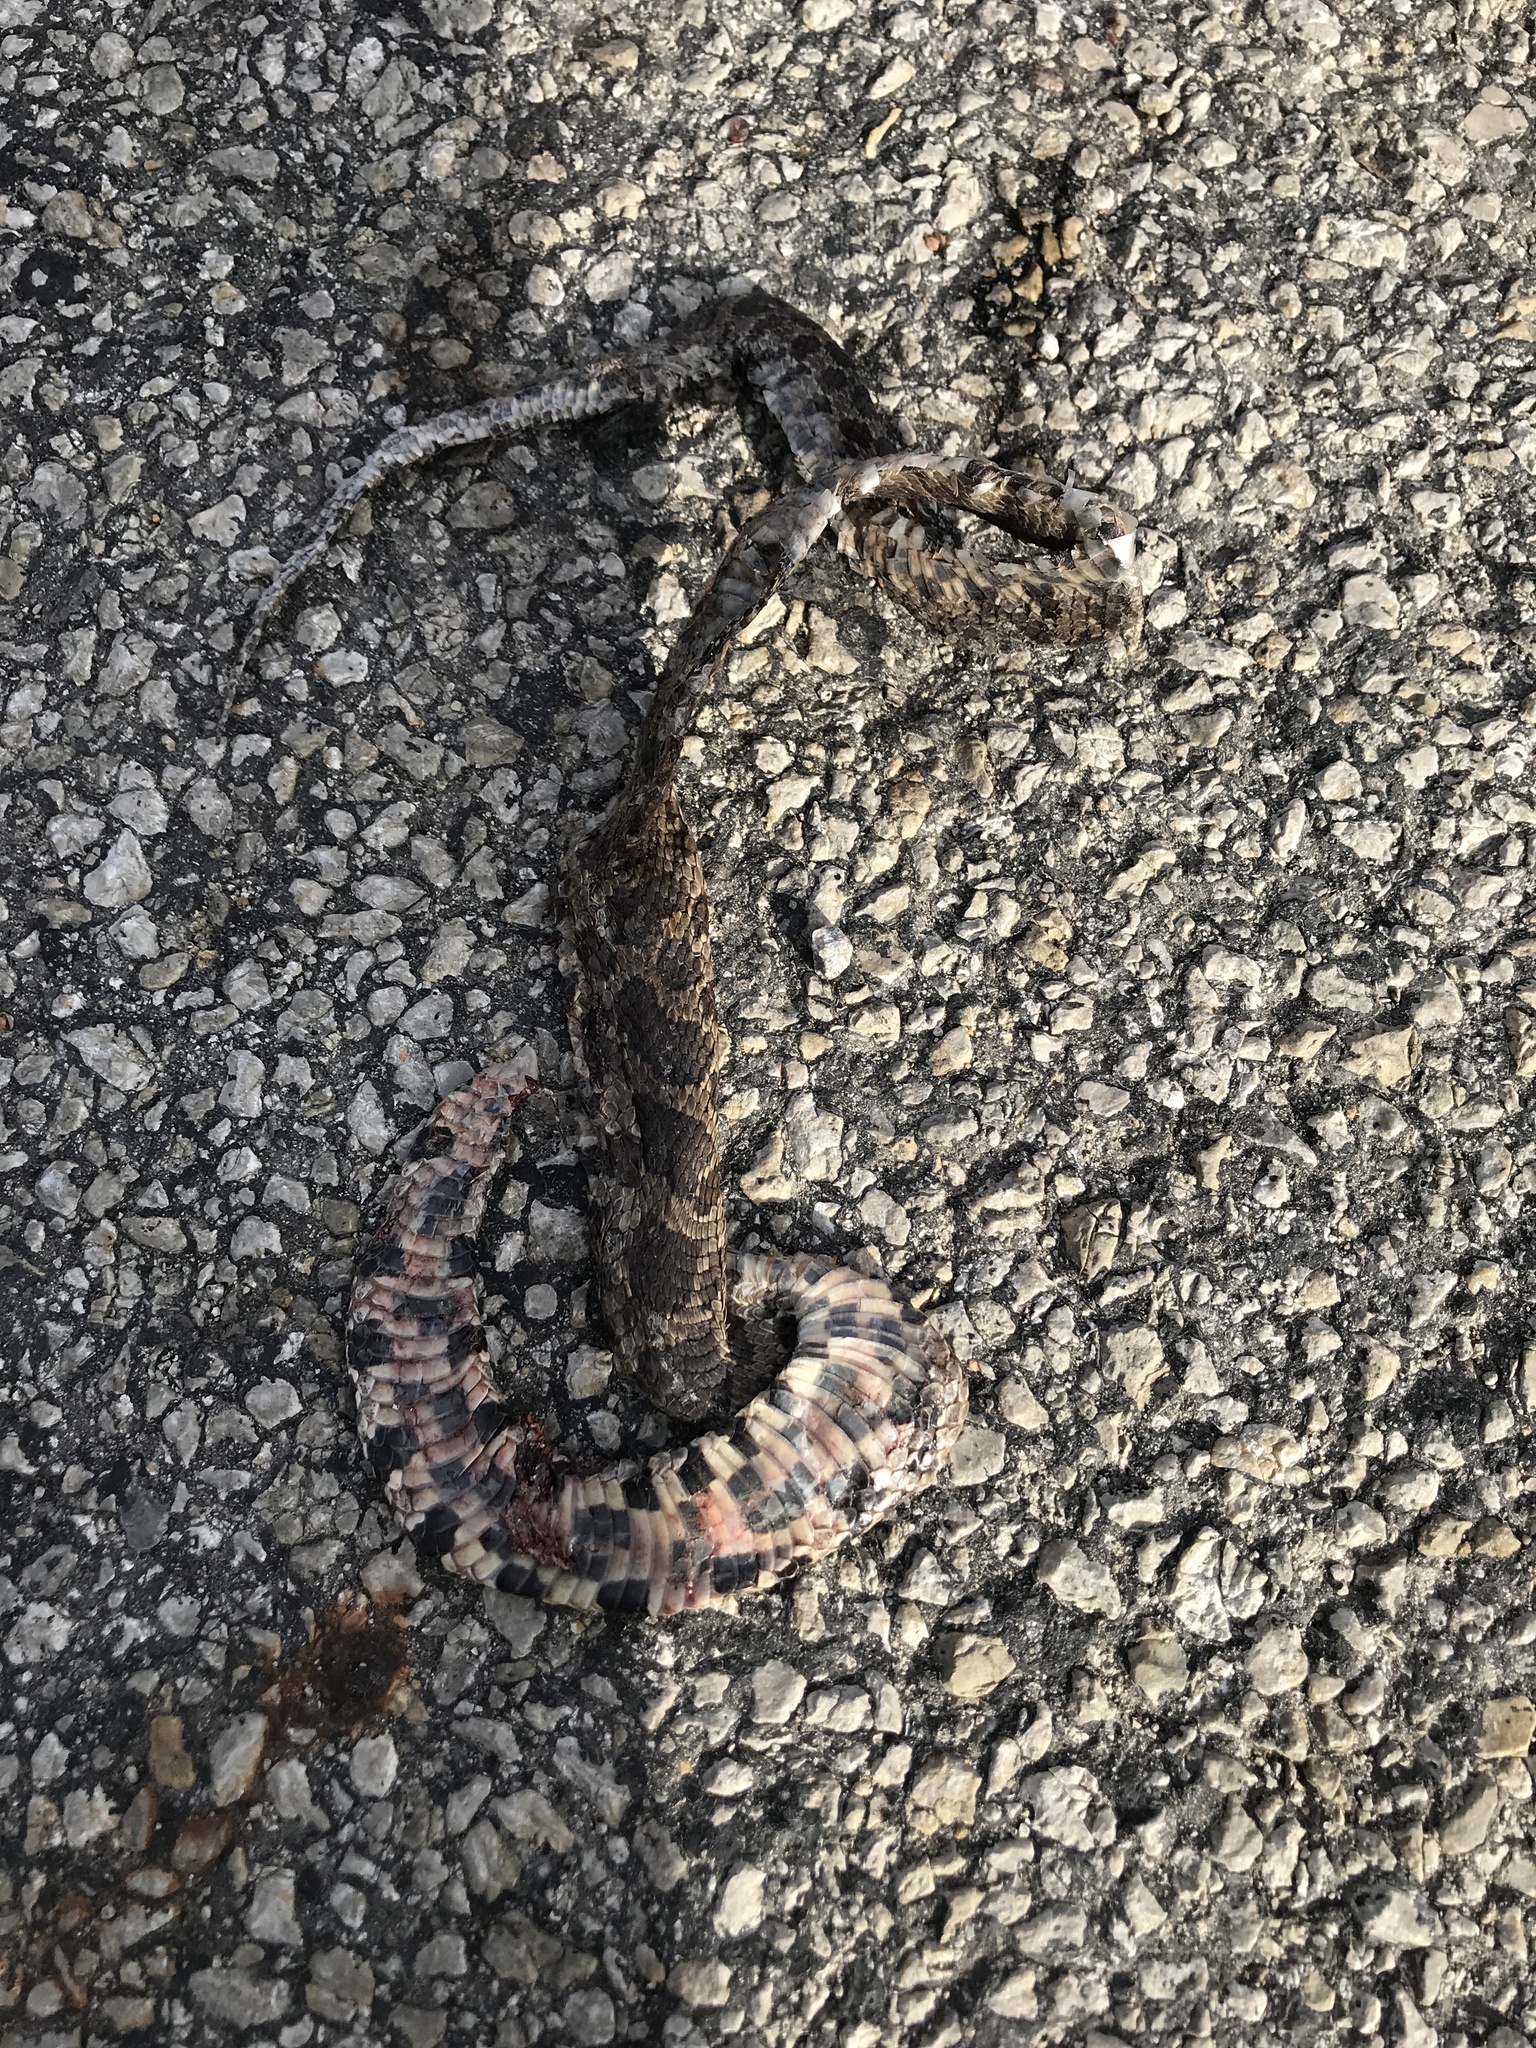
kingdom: Animalia
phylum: Chordata
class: Squamata
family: Colubridae
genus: Pantherophis
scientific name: Pantherophis ramspotti
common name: Western foxsnake
